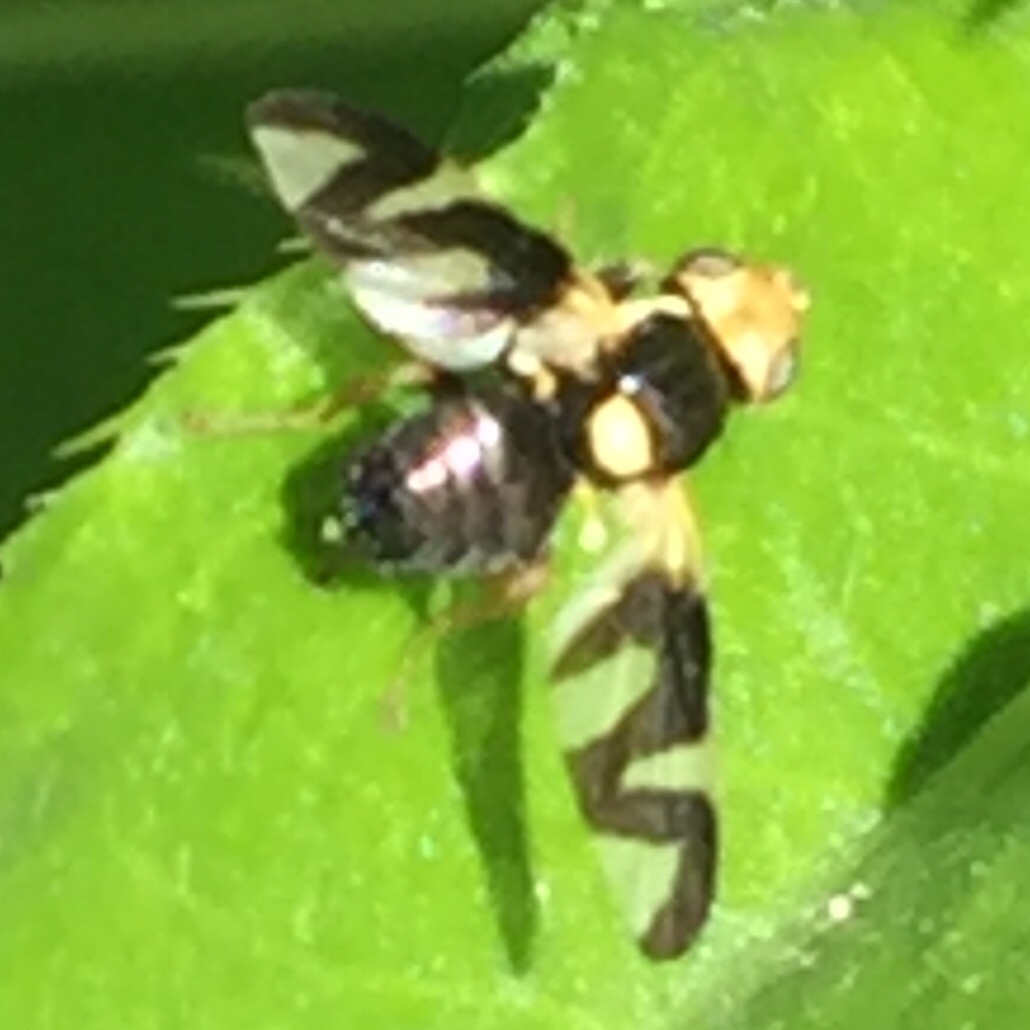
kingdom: Animalia
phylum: Arthropoda
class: Insecta
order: Diptera
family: Tephritidae
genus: Urophora
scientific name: Urophora cardui
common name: Fruit fly
